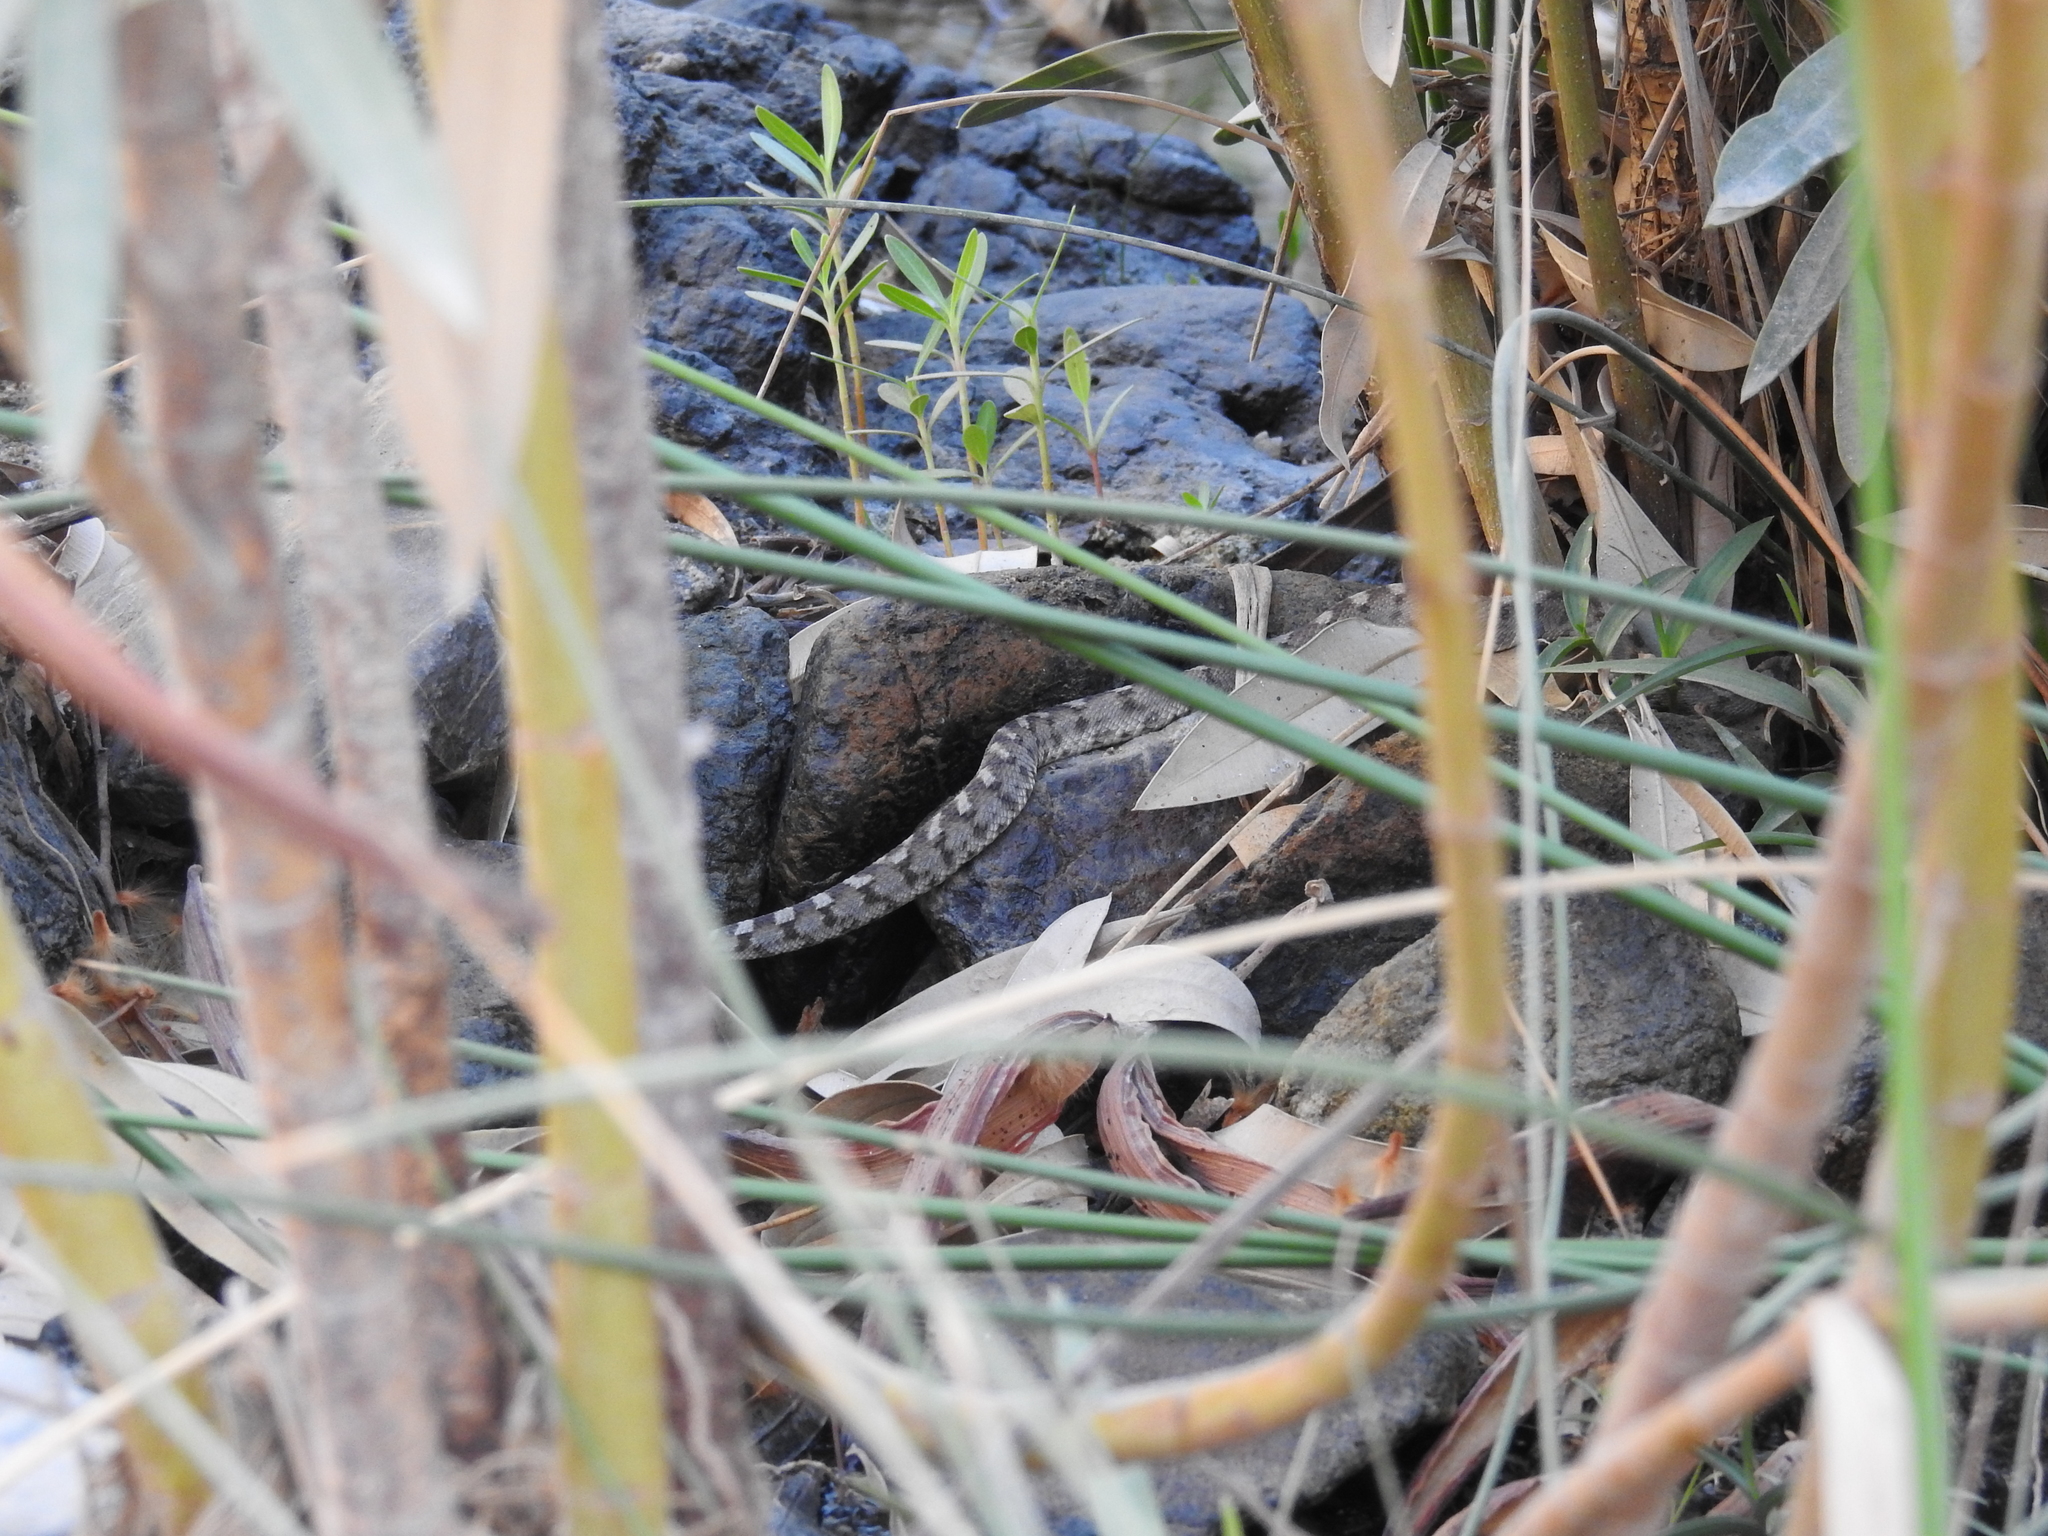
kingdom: Animalia
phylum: Chordata
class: Squamata
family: Viperidae
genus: Echis
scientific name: Echis omanensis
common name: Oman saw-scaled viper
